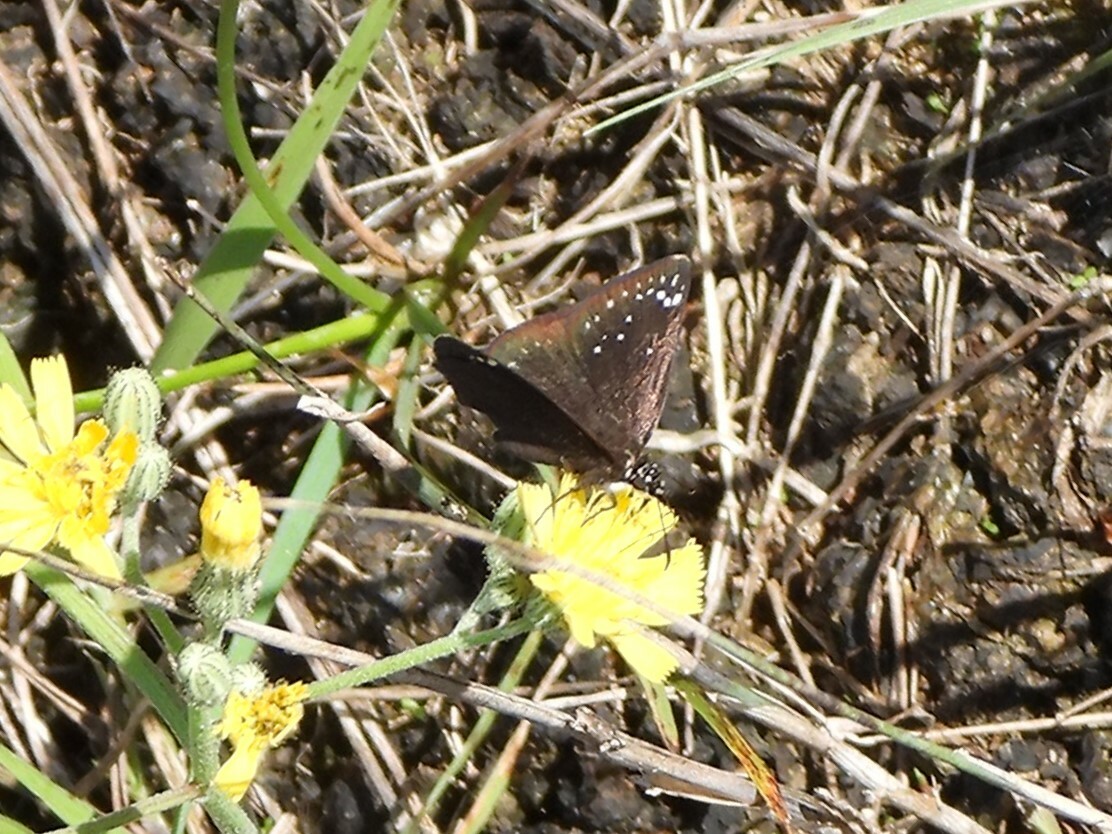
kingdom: Animalia
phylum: Arthropoda
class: Insecta
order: Lepidoptera
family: Hesperiidae
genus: Pholisora
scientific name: Pholisora catullus
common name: Common sootywing
